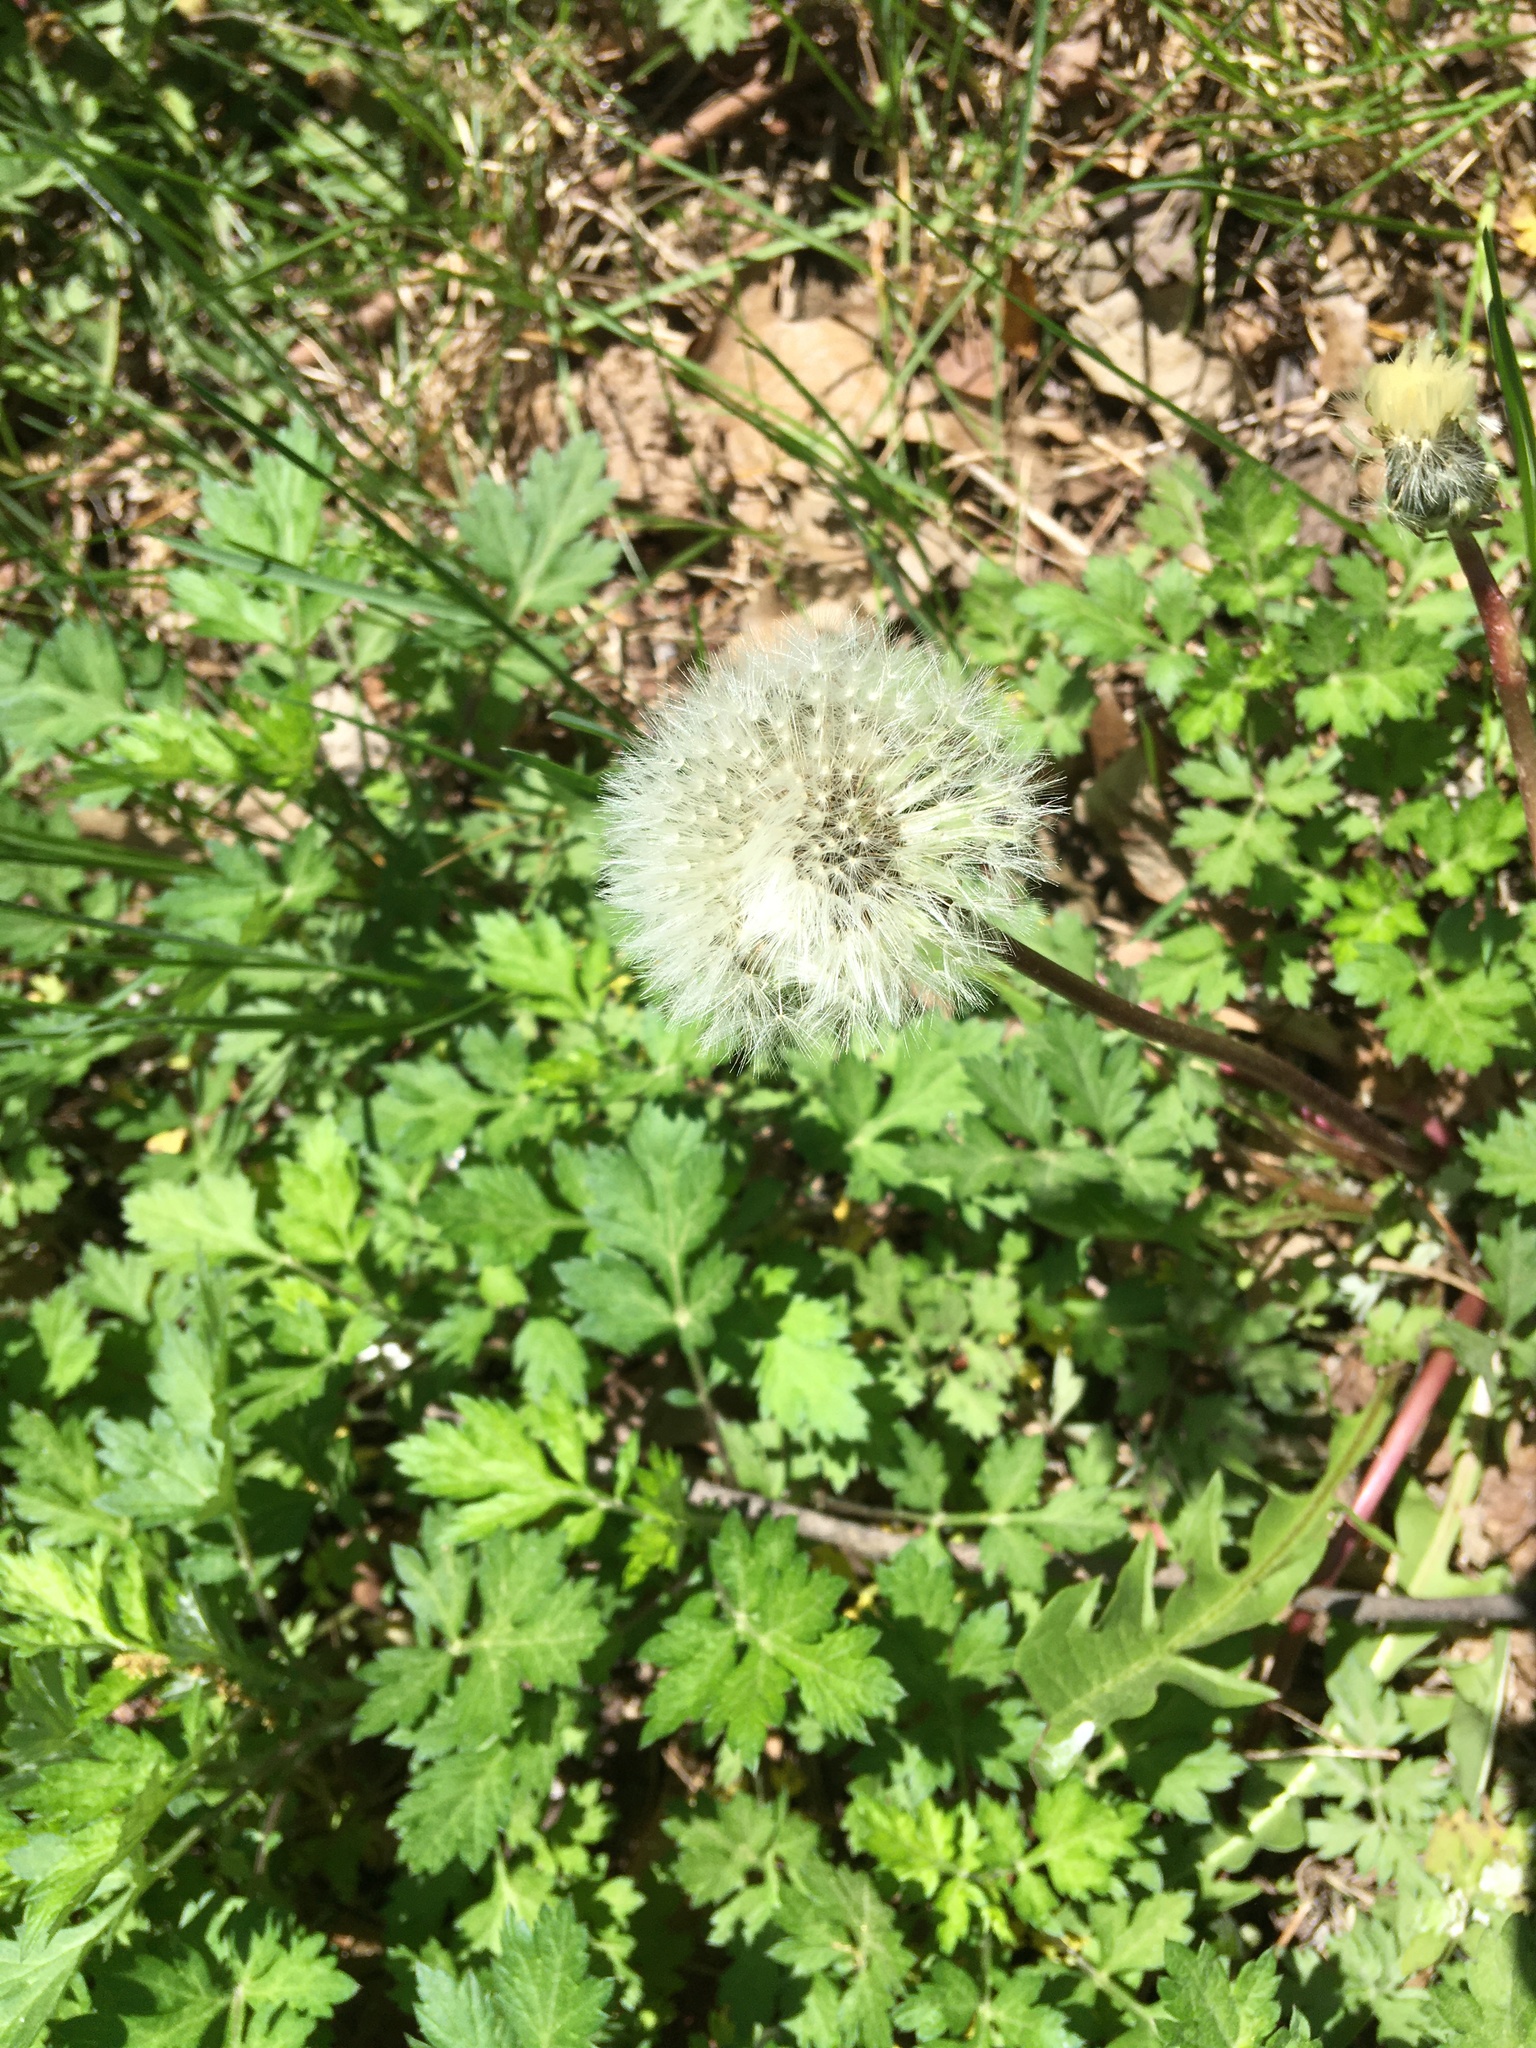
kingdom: Plantae
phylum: Tracheophyta
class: Magnoliopsida
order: Asterales
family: Asteraceae
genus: Taraxacum
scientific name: Taraxacum officinale
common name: Common dandelion
